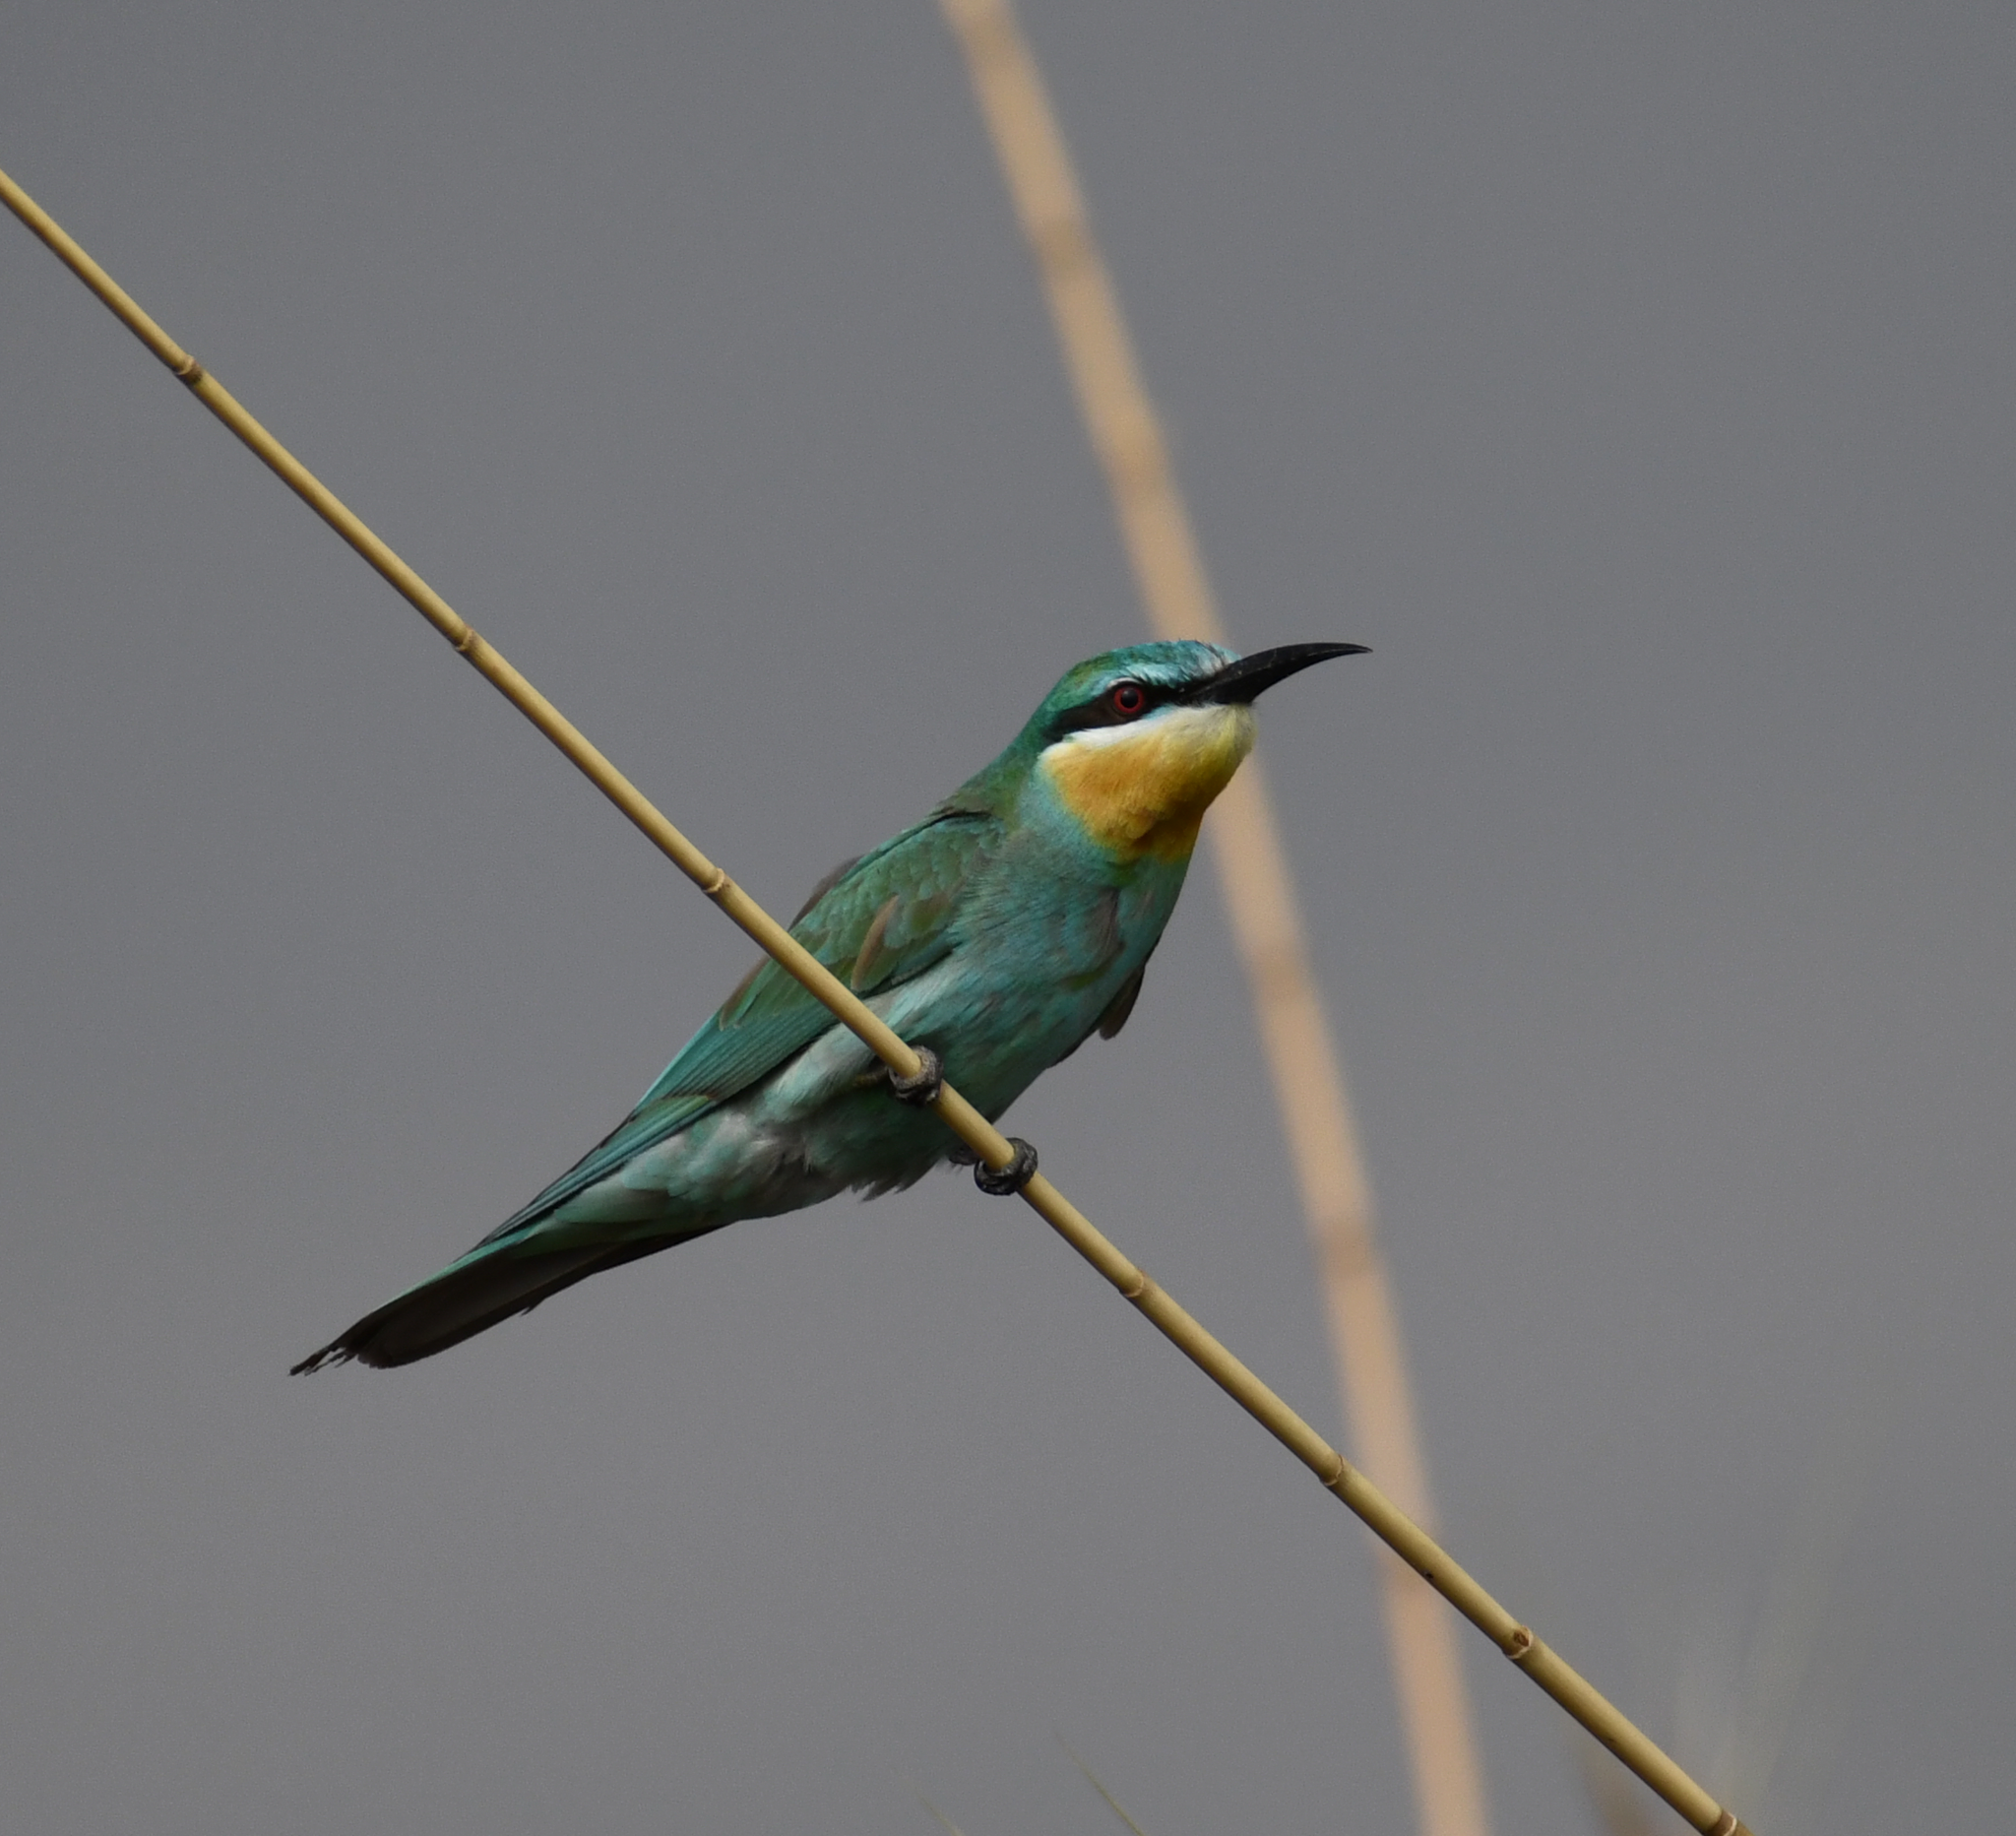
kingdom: Animalia
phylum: Chordata
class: Aves
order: Coraciiformes
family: Meropidae
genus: Merops
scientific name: Merops persicus
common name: Blue-cheeked bee-eater
